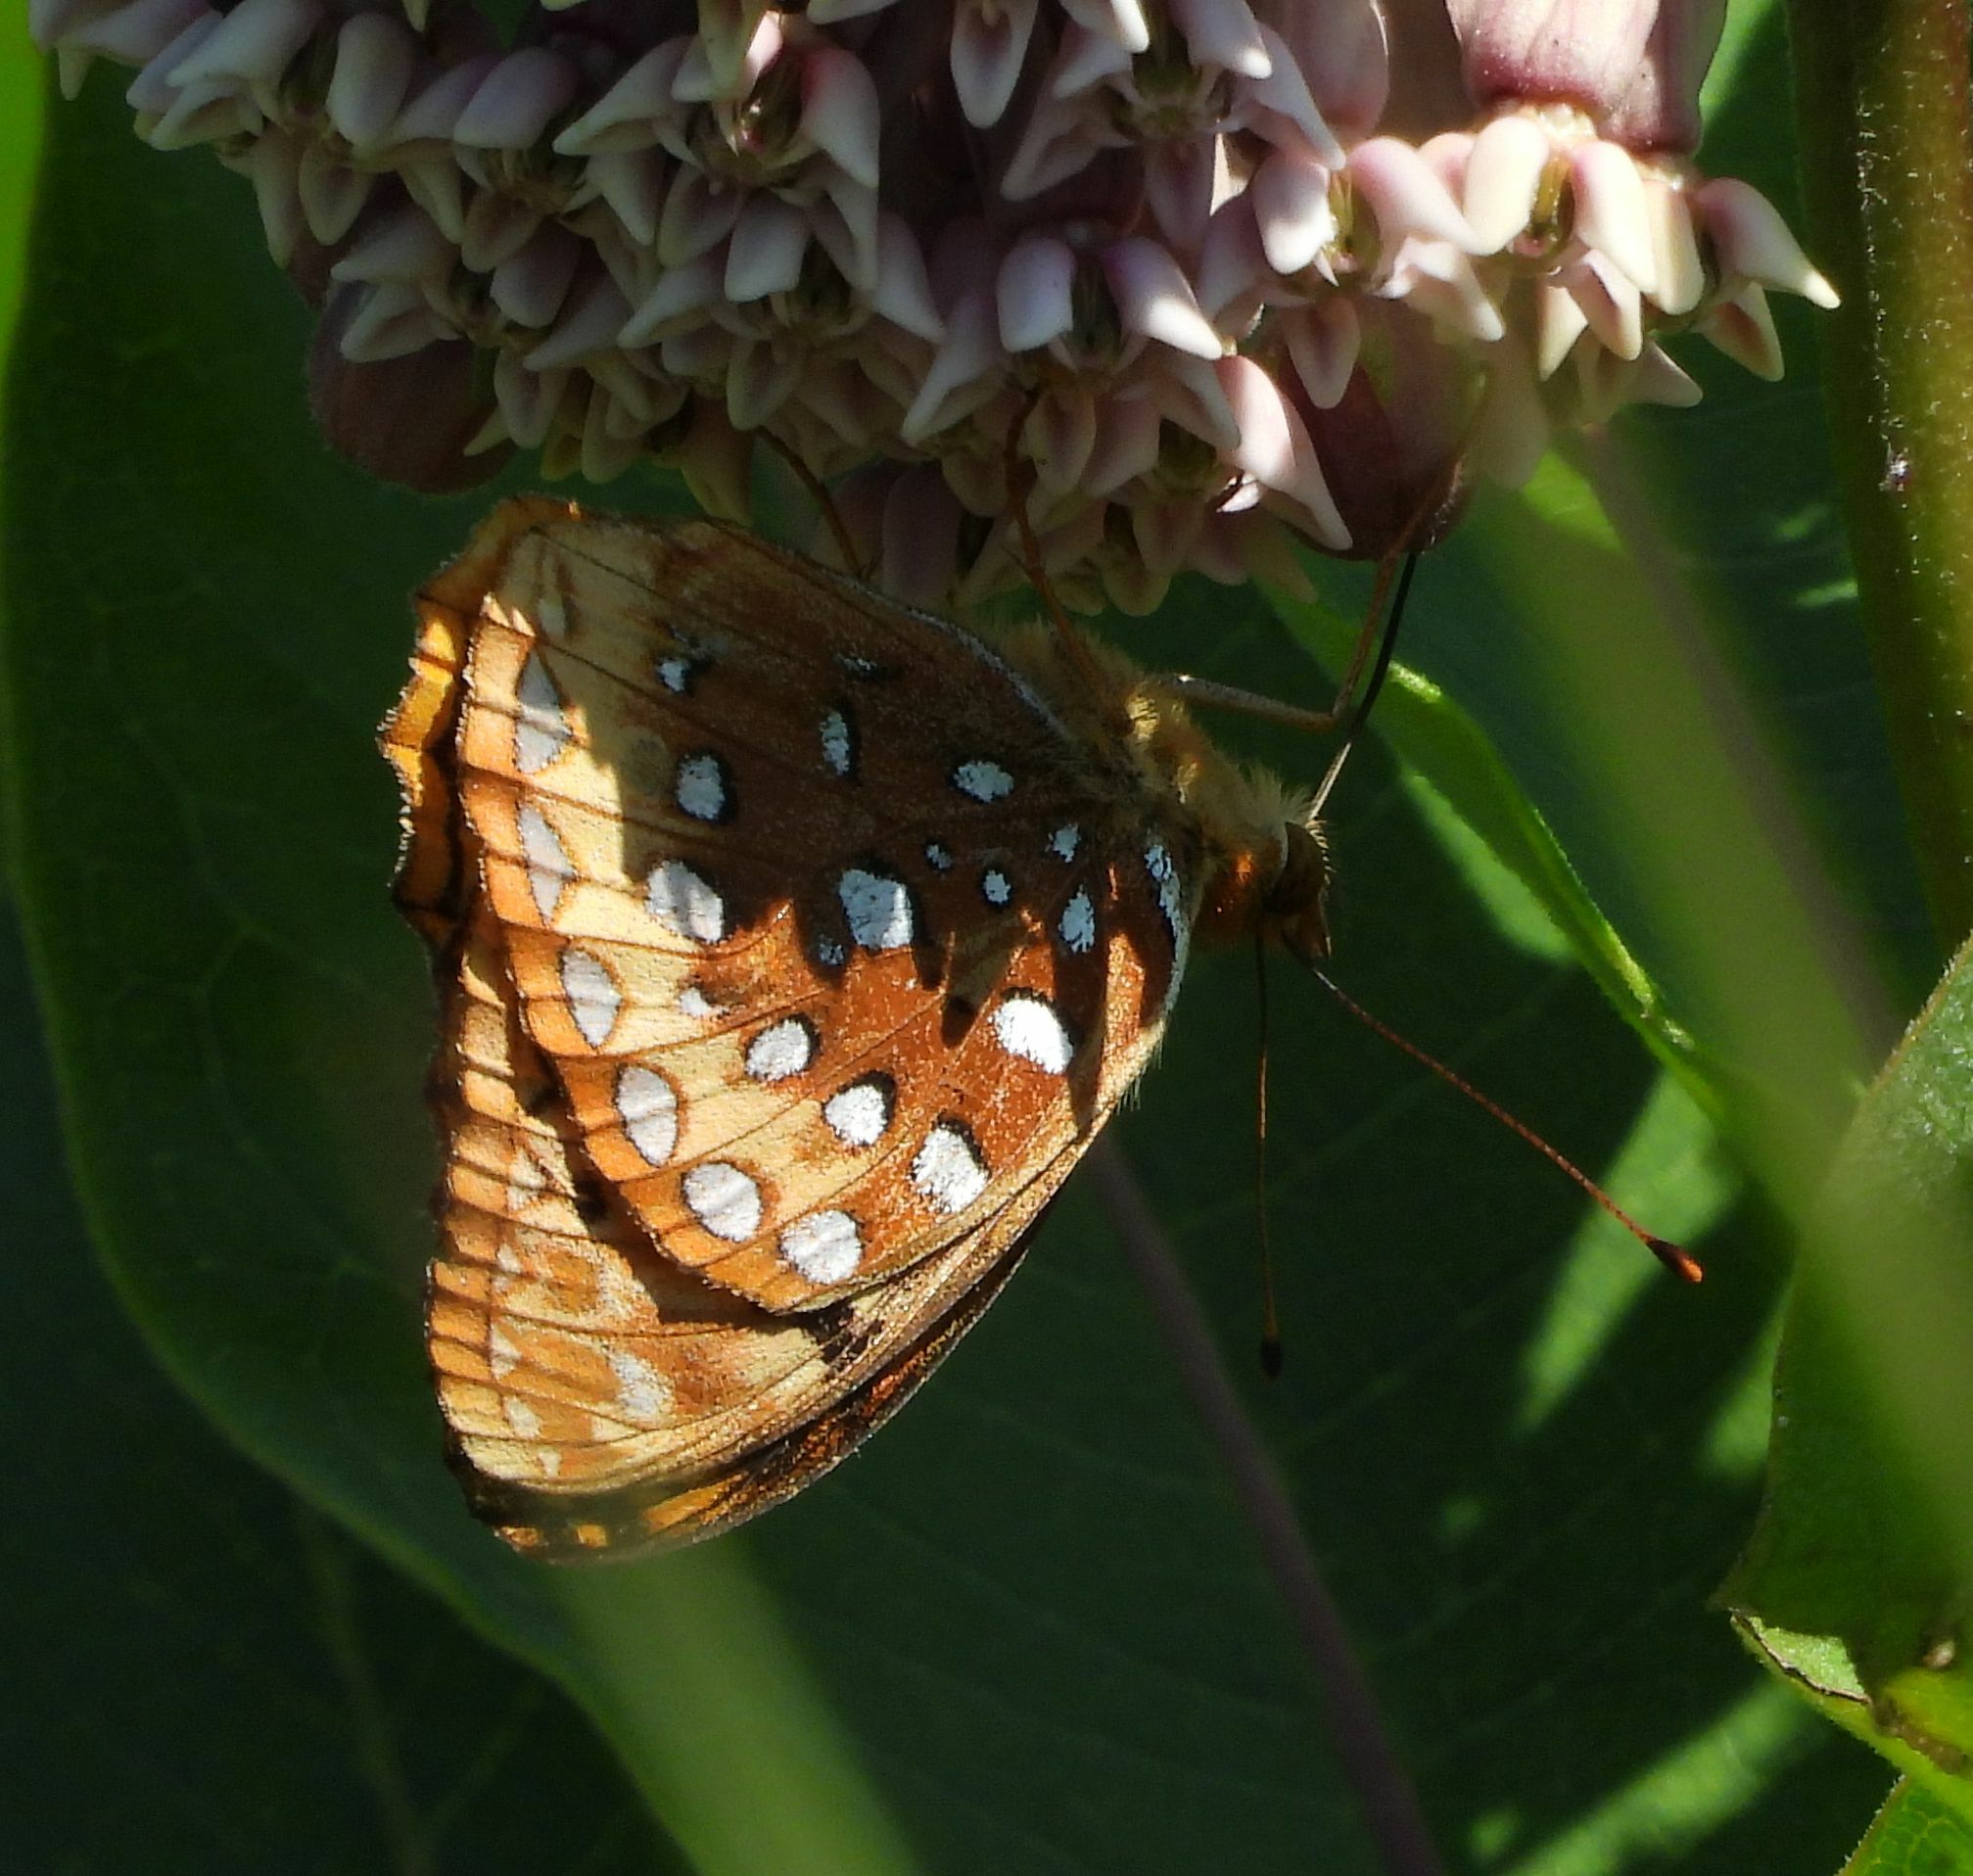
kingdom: Animalia
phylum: Arthropoda
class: Insecta
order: Lepidoptera
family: Nymphalidae
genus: Speyeria
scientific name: Speyeria cybele
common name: Great spangled fritillary
